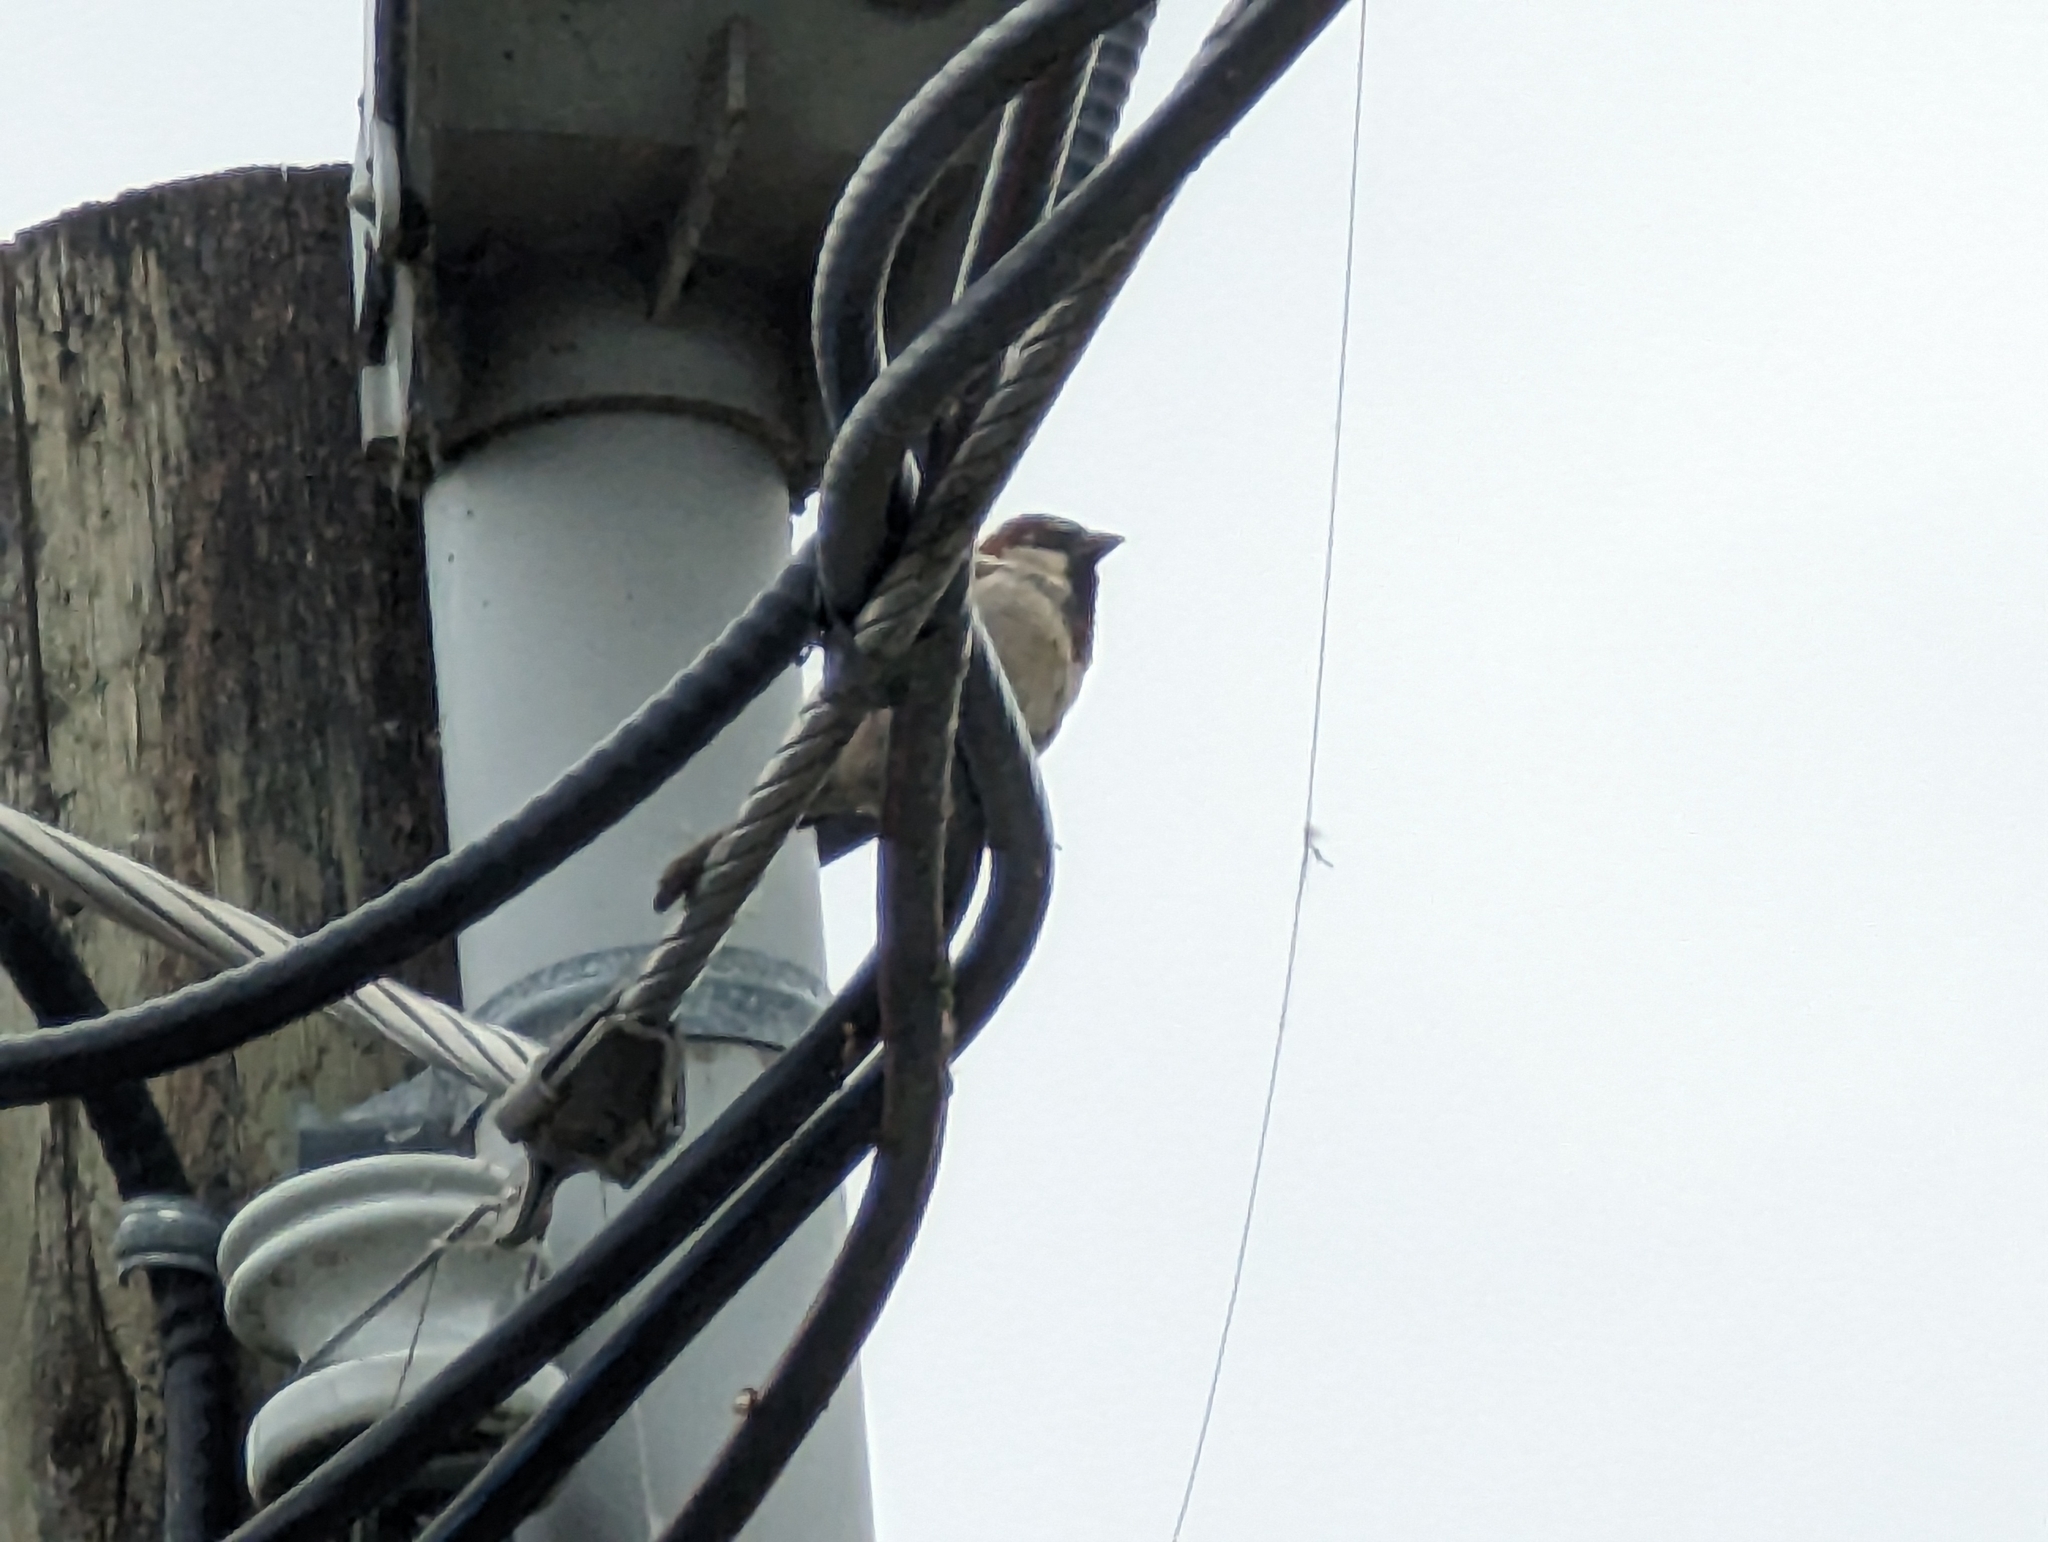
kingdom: Animalia
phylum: Chordata
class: Aves
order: Passeriformes
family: Passeridae
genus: Passer
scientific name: Passer domesticus
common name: House sparrow
